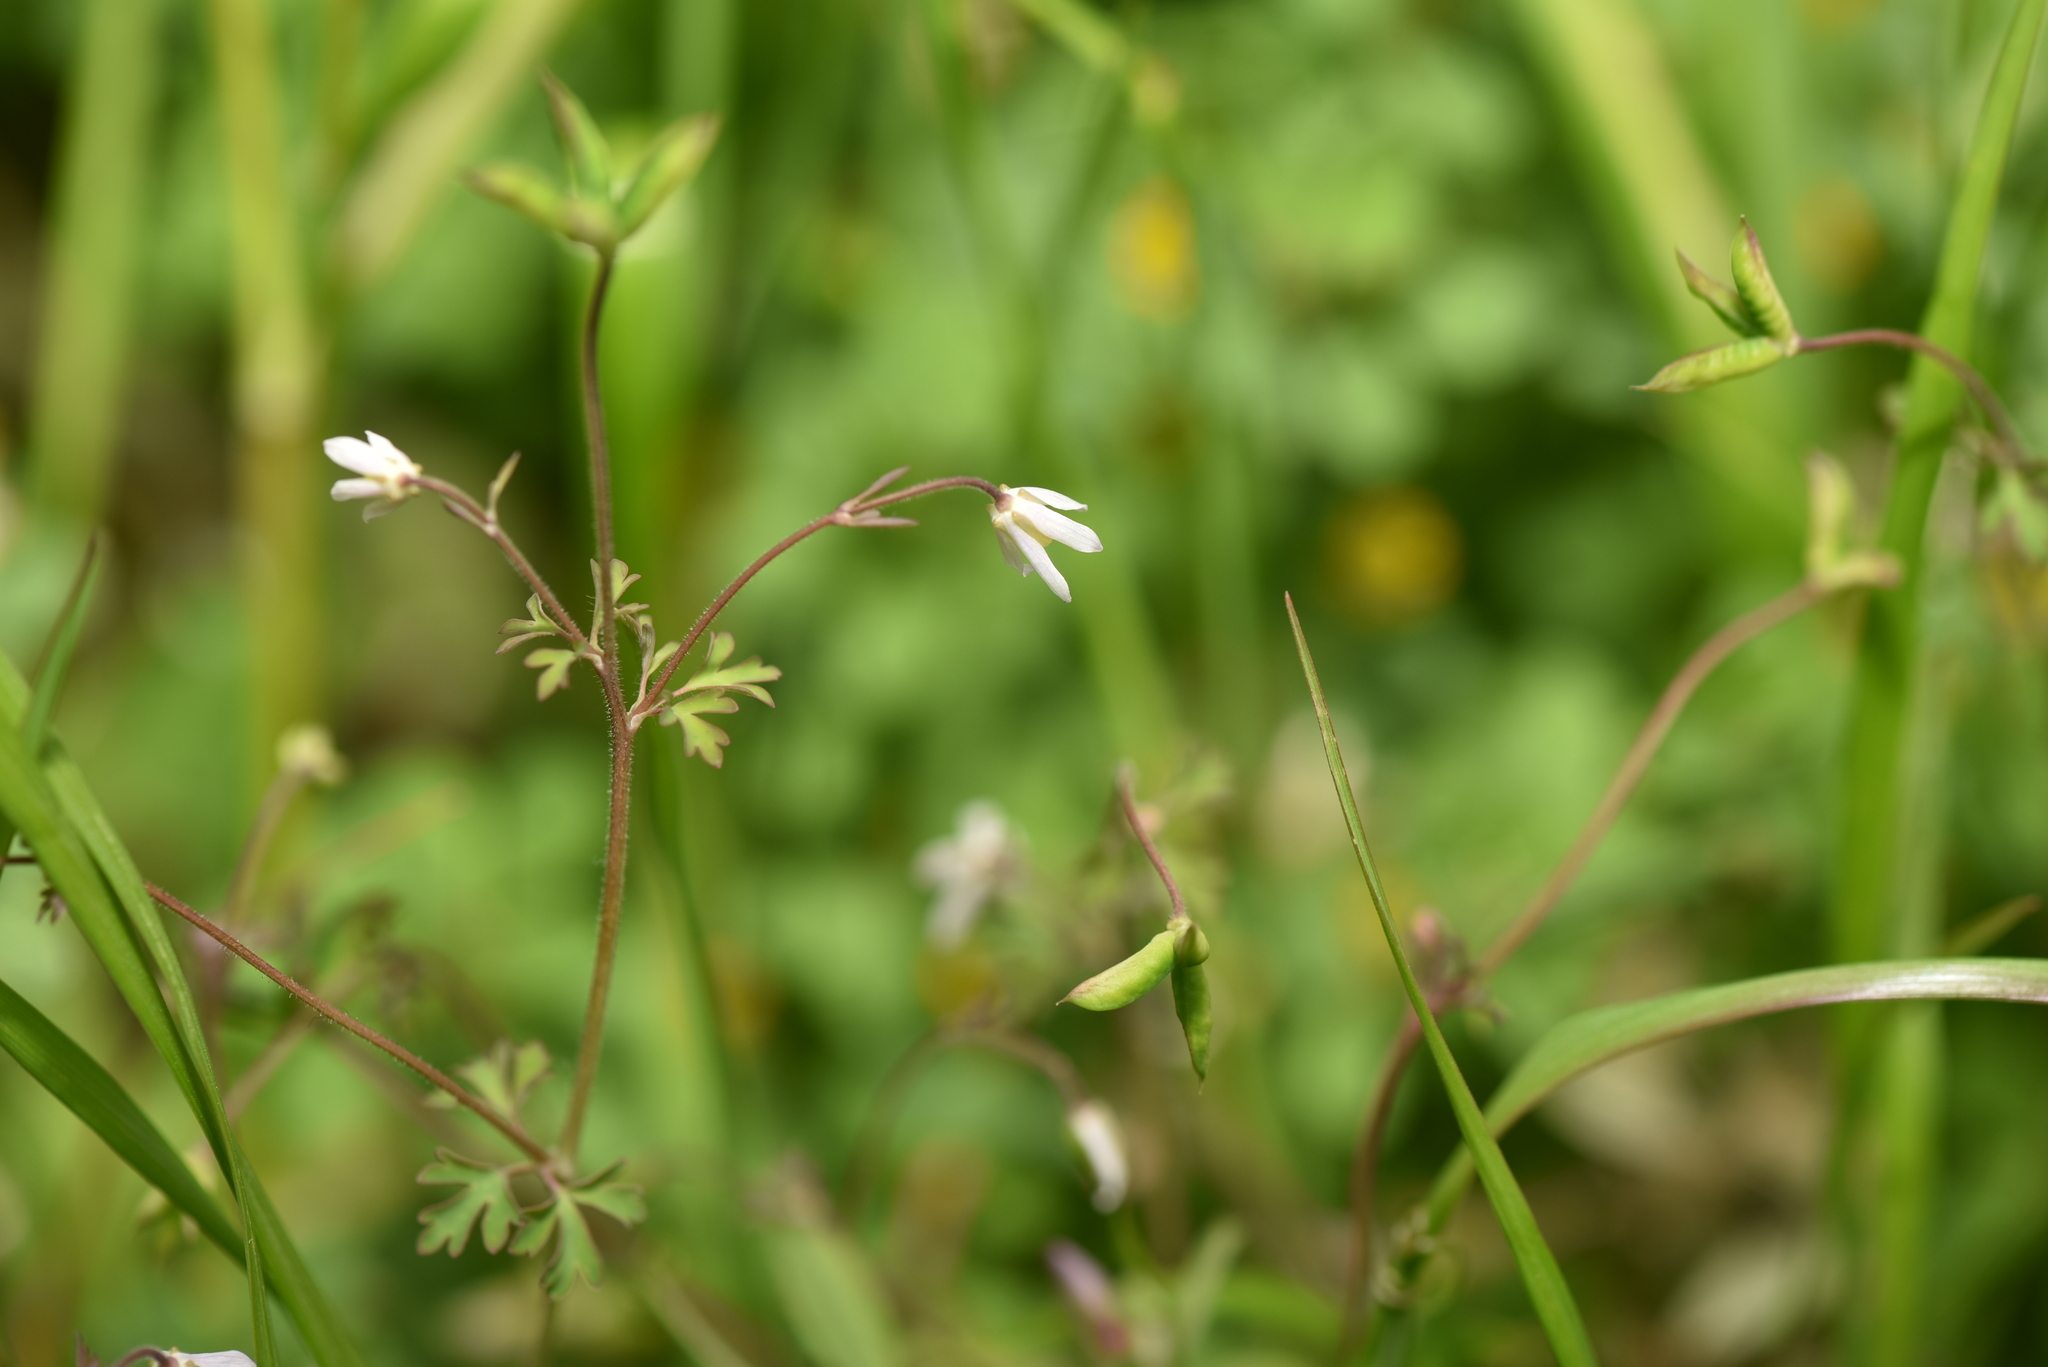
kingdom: Plantae
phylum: Tracheophyta
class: Magnoliopsida
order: Ranunculales
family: Ranunculaceae
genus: Semiaquilegia
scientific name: Semiaquilegia adoxoides
